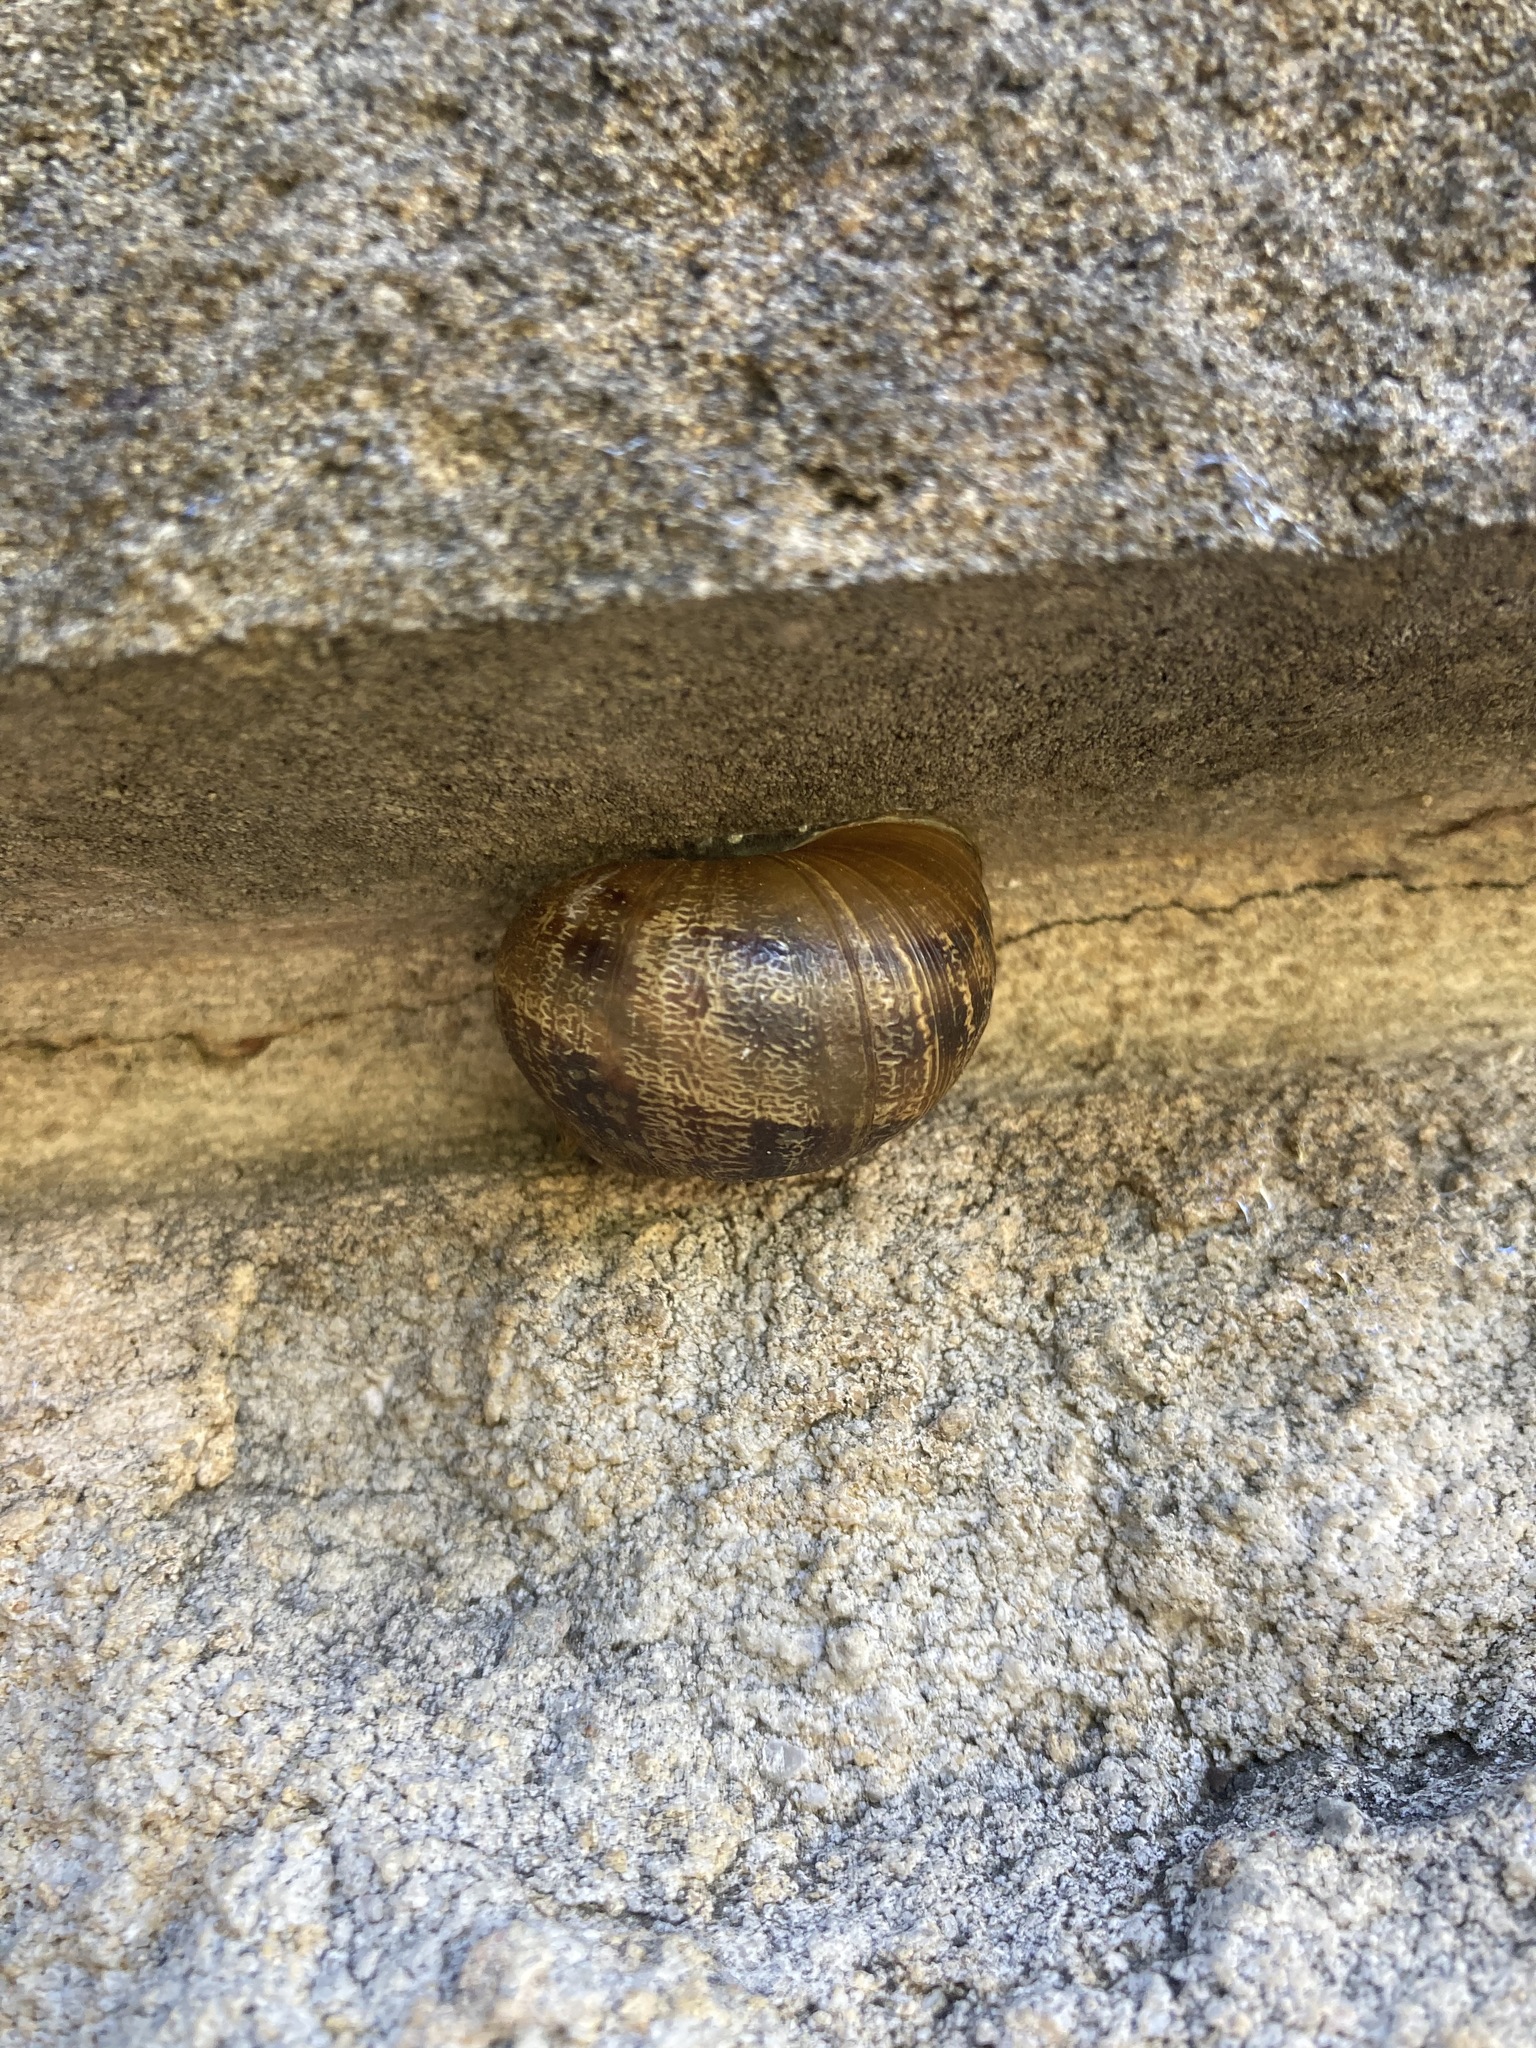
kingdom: Animalia
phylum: Mollusca
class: Gastropoda
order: Stylommatophora
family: Helicidae
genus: Cornu
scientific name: Cornu aspersum
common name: Brown garden snail
